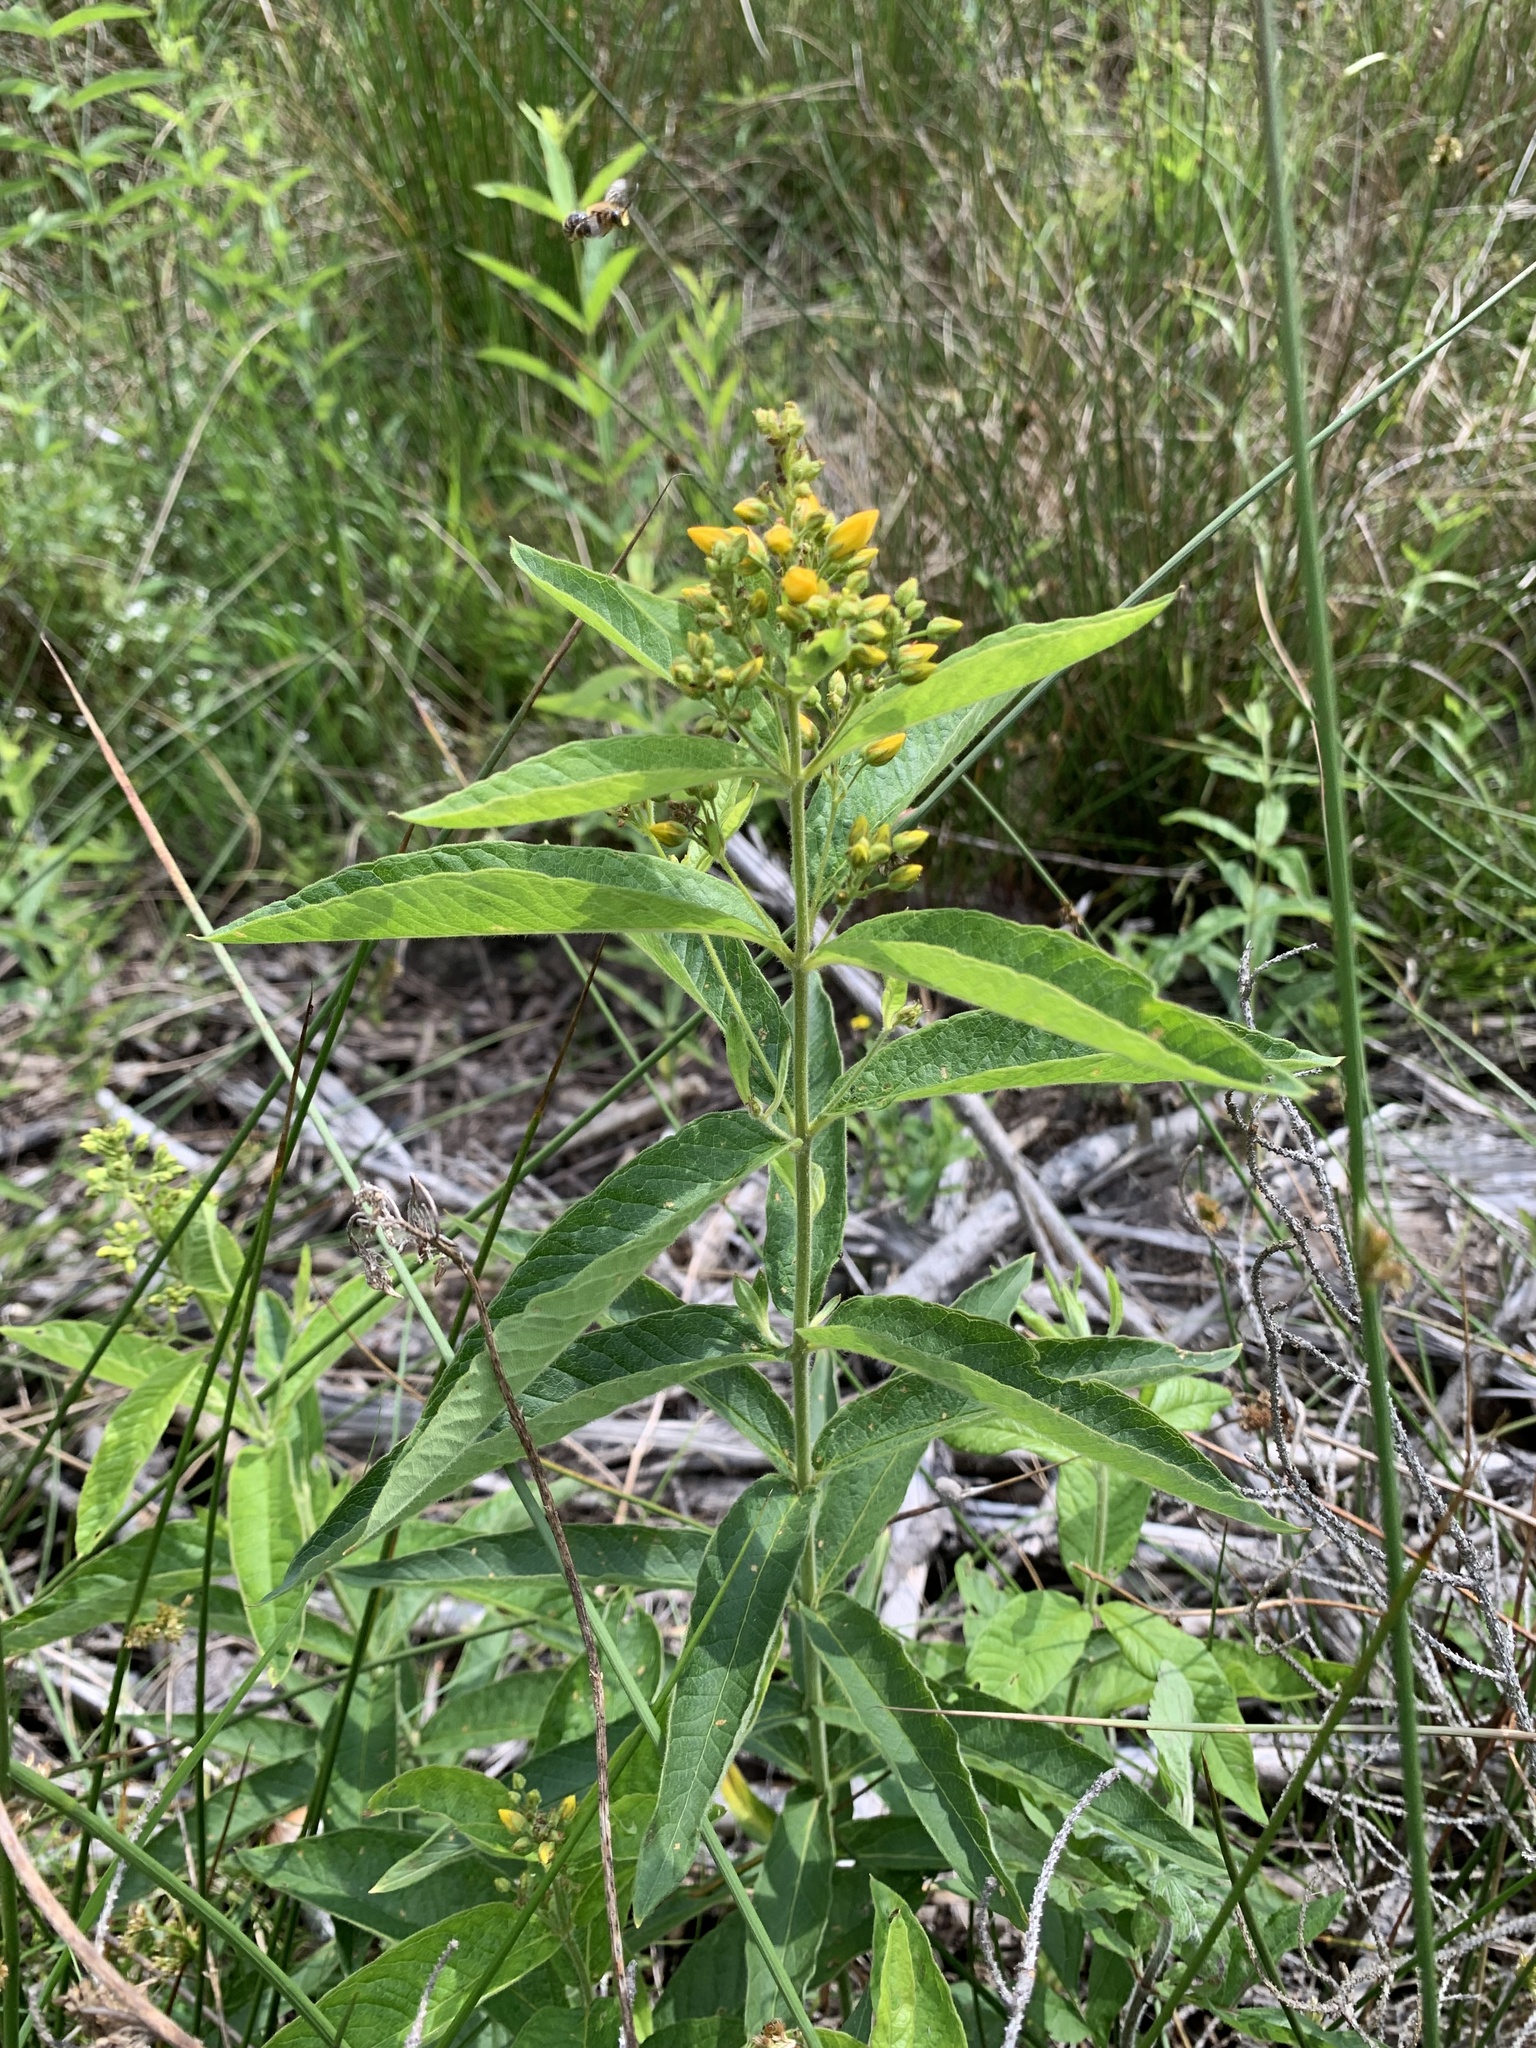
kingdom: Plantae
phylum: Tracheophyta
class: Magnoliopsida
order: Ericales
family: Primulaceae
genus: Lysimachia
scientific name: Lysimachia vulgaris
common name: Yellow loosestrife
